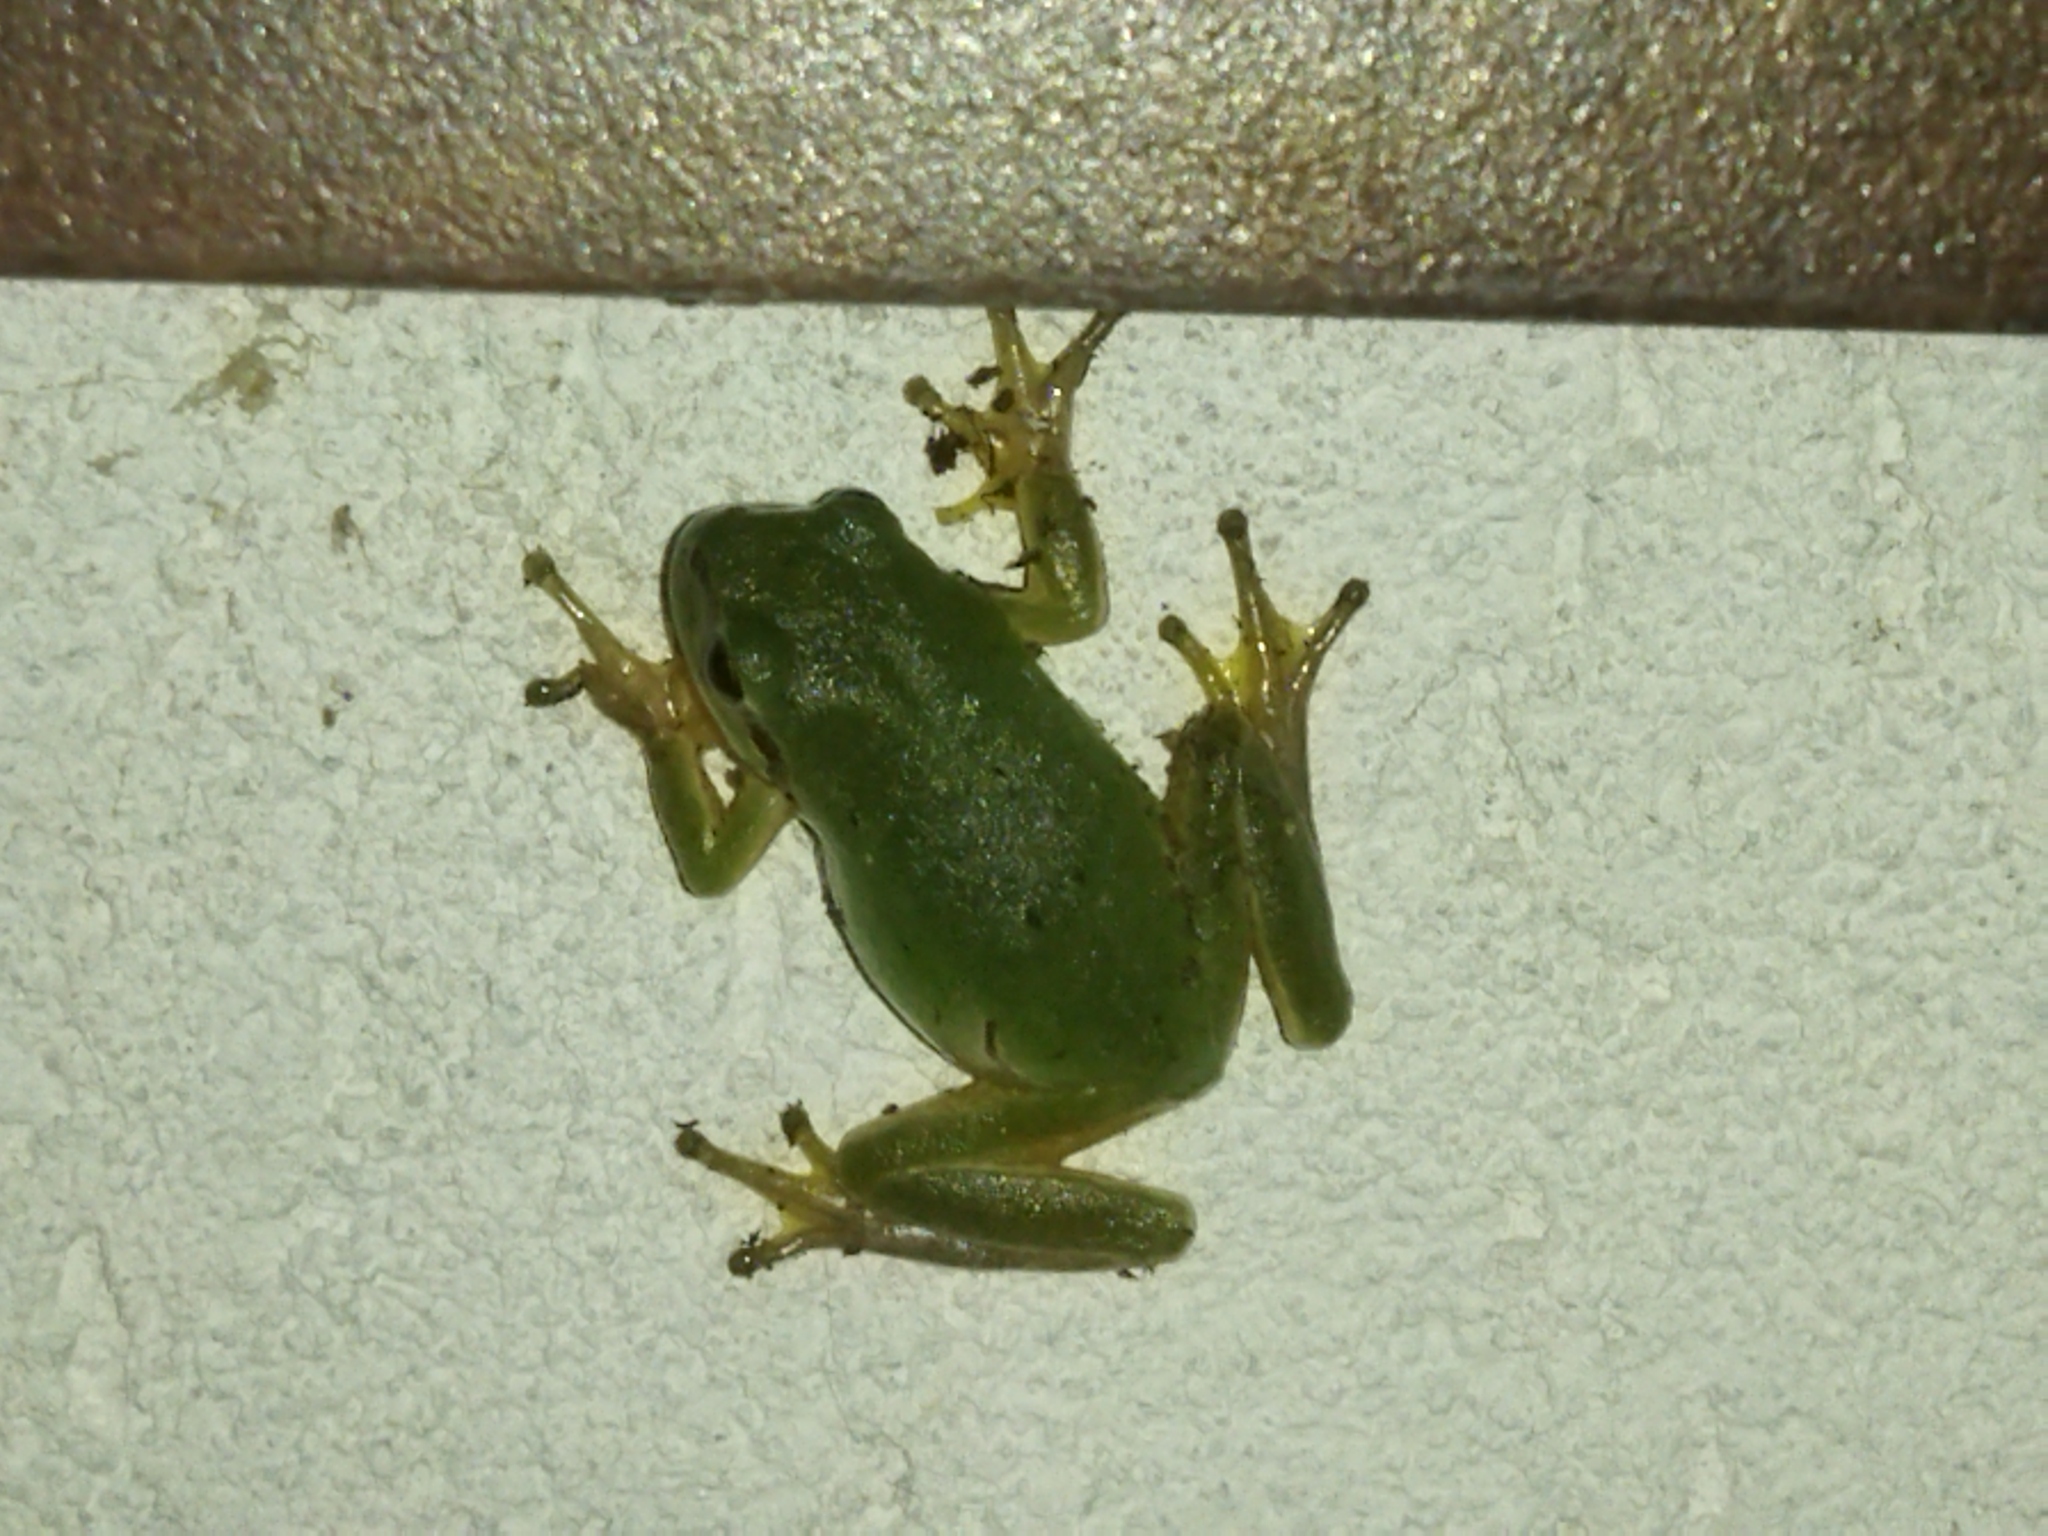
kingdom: Animalia
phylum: Chordata
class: Amphibia
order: Anura
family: Hylidae
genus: Hyla
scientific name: Hyla orientalis
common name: Caucasian treefrog
